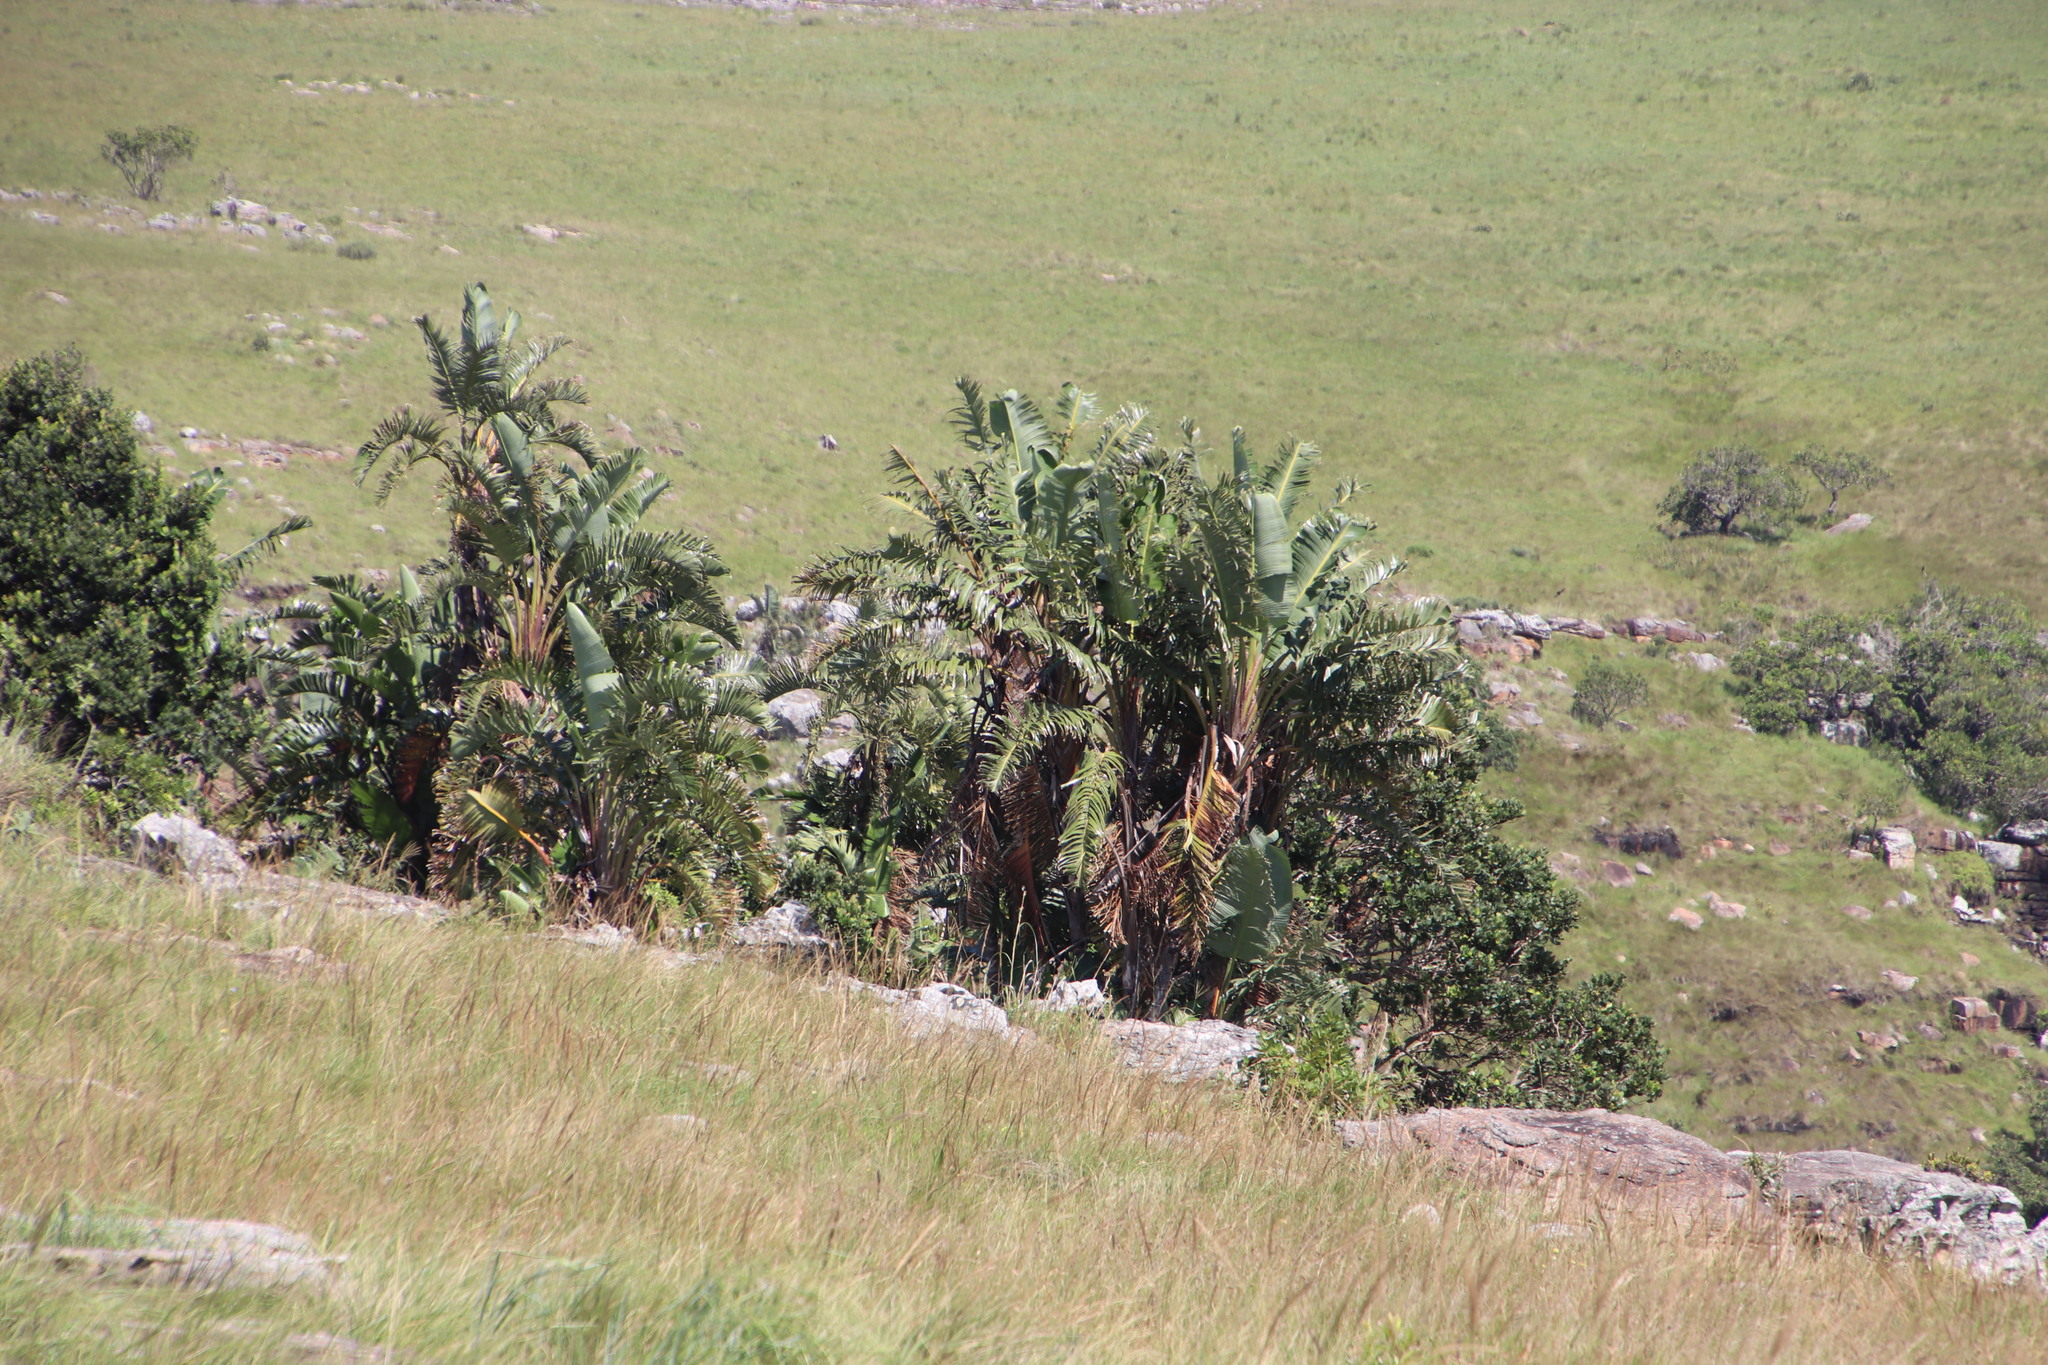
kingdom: Plantae
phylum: Tracheophyta
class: Liliopsida
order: Zingiberales
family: Strelitziaceae
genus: Strelitzia
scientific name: Strelitzia nicolai
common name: Bird-of-paradise tree
